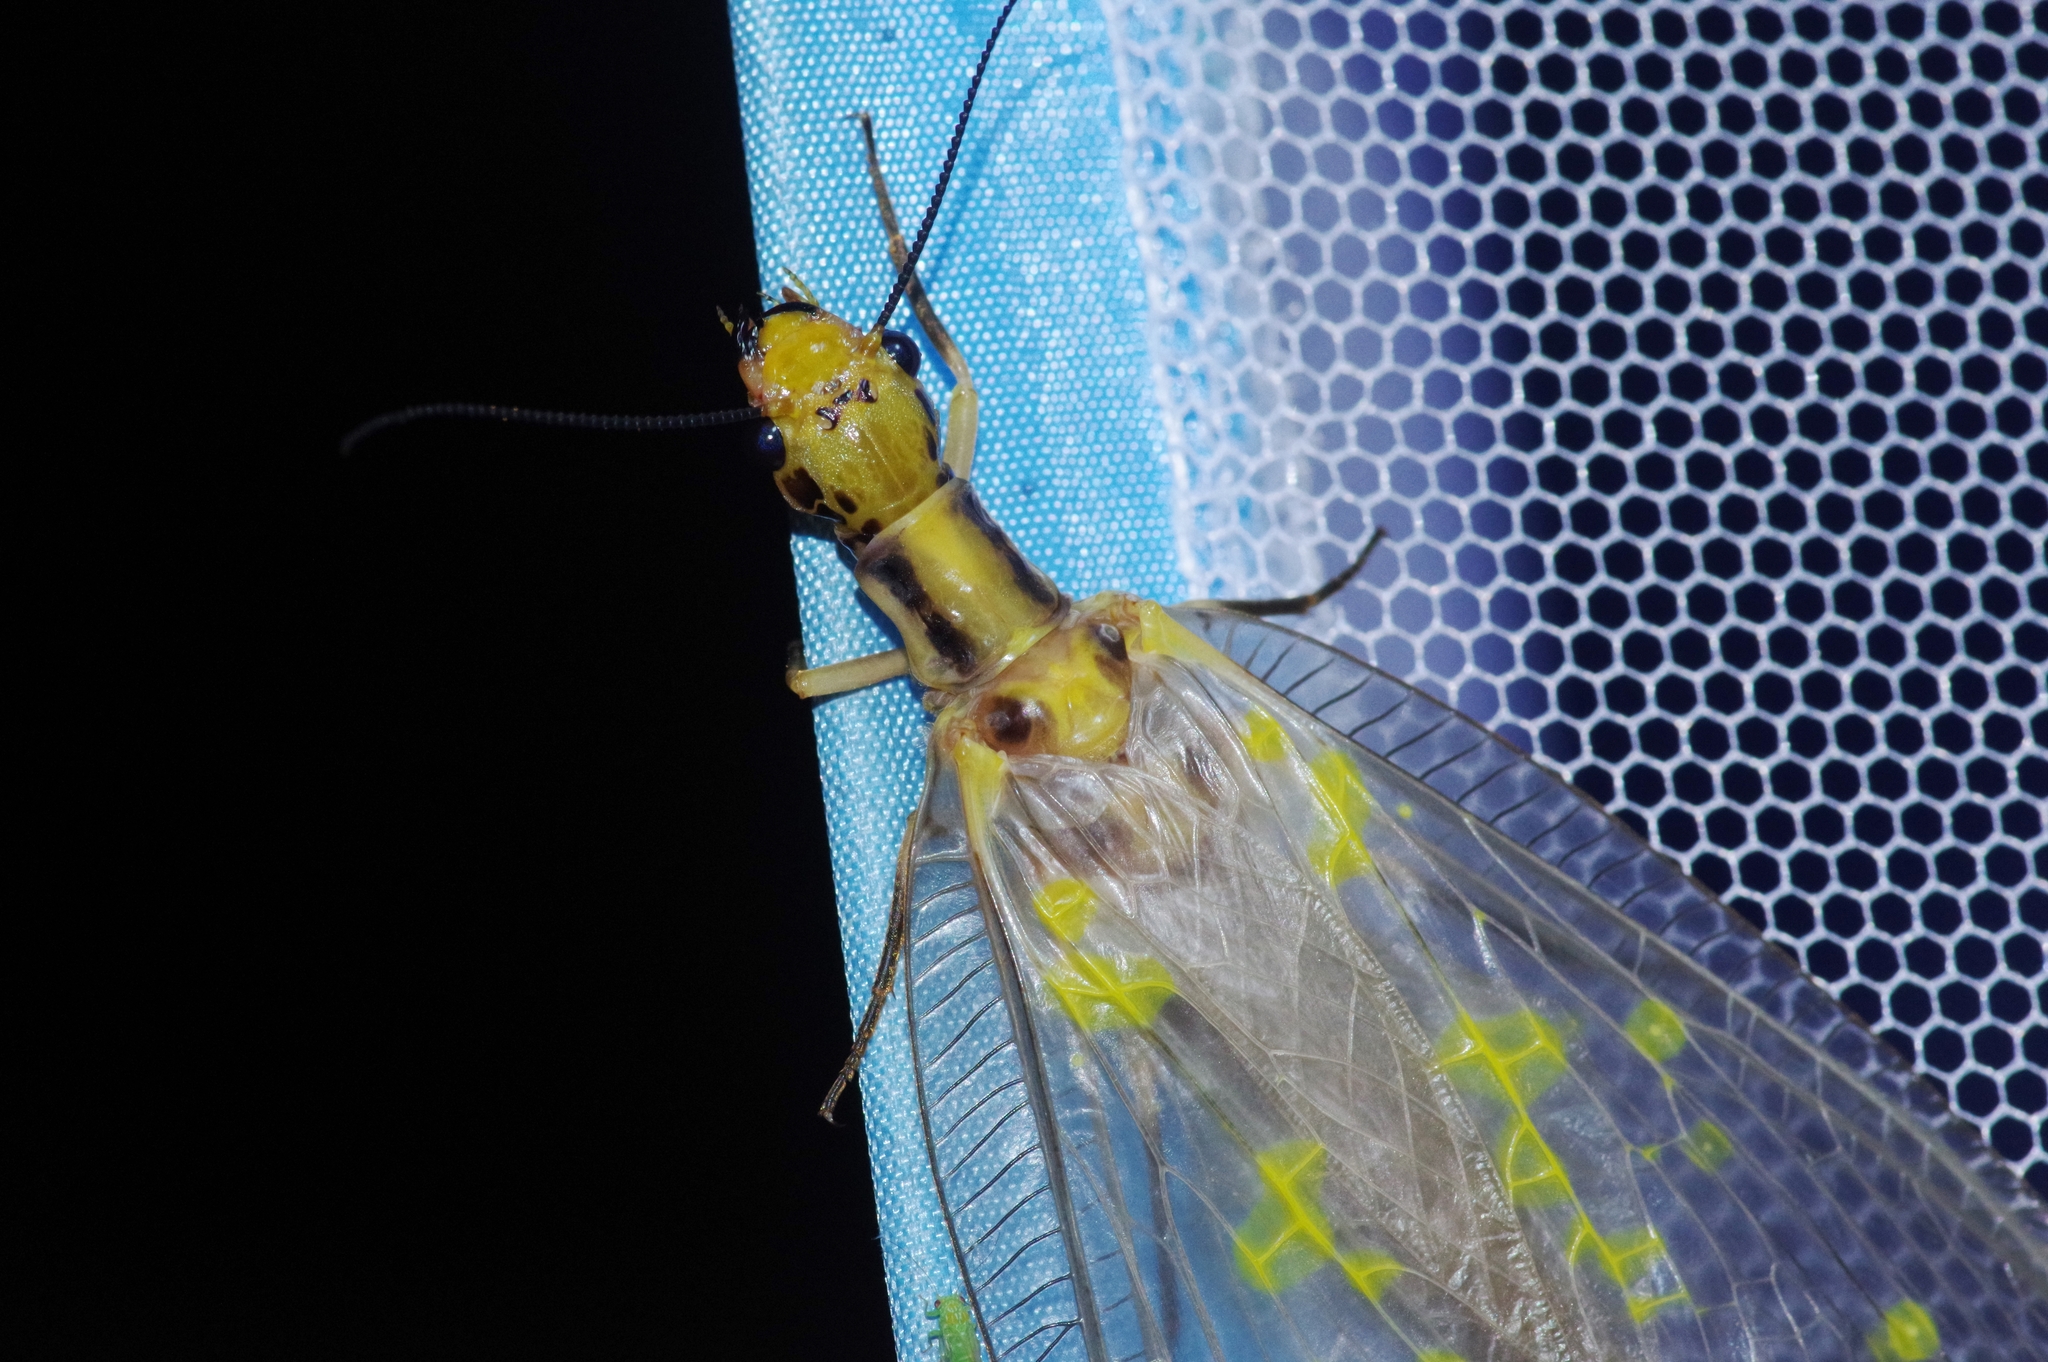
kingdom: Animalia
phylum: Arthropoda
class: Insecta
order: Megaloptera
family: Corydalidae
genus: Protohermes
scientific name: Protohermes grandis
